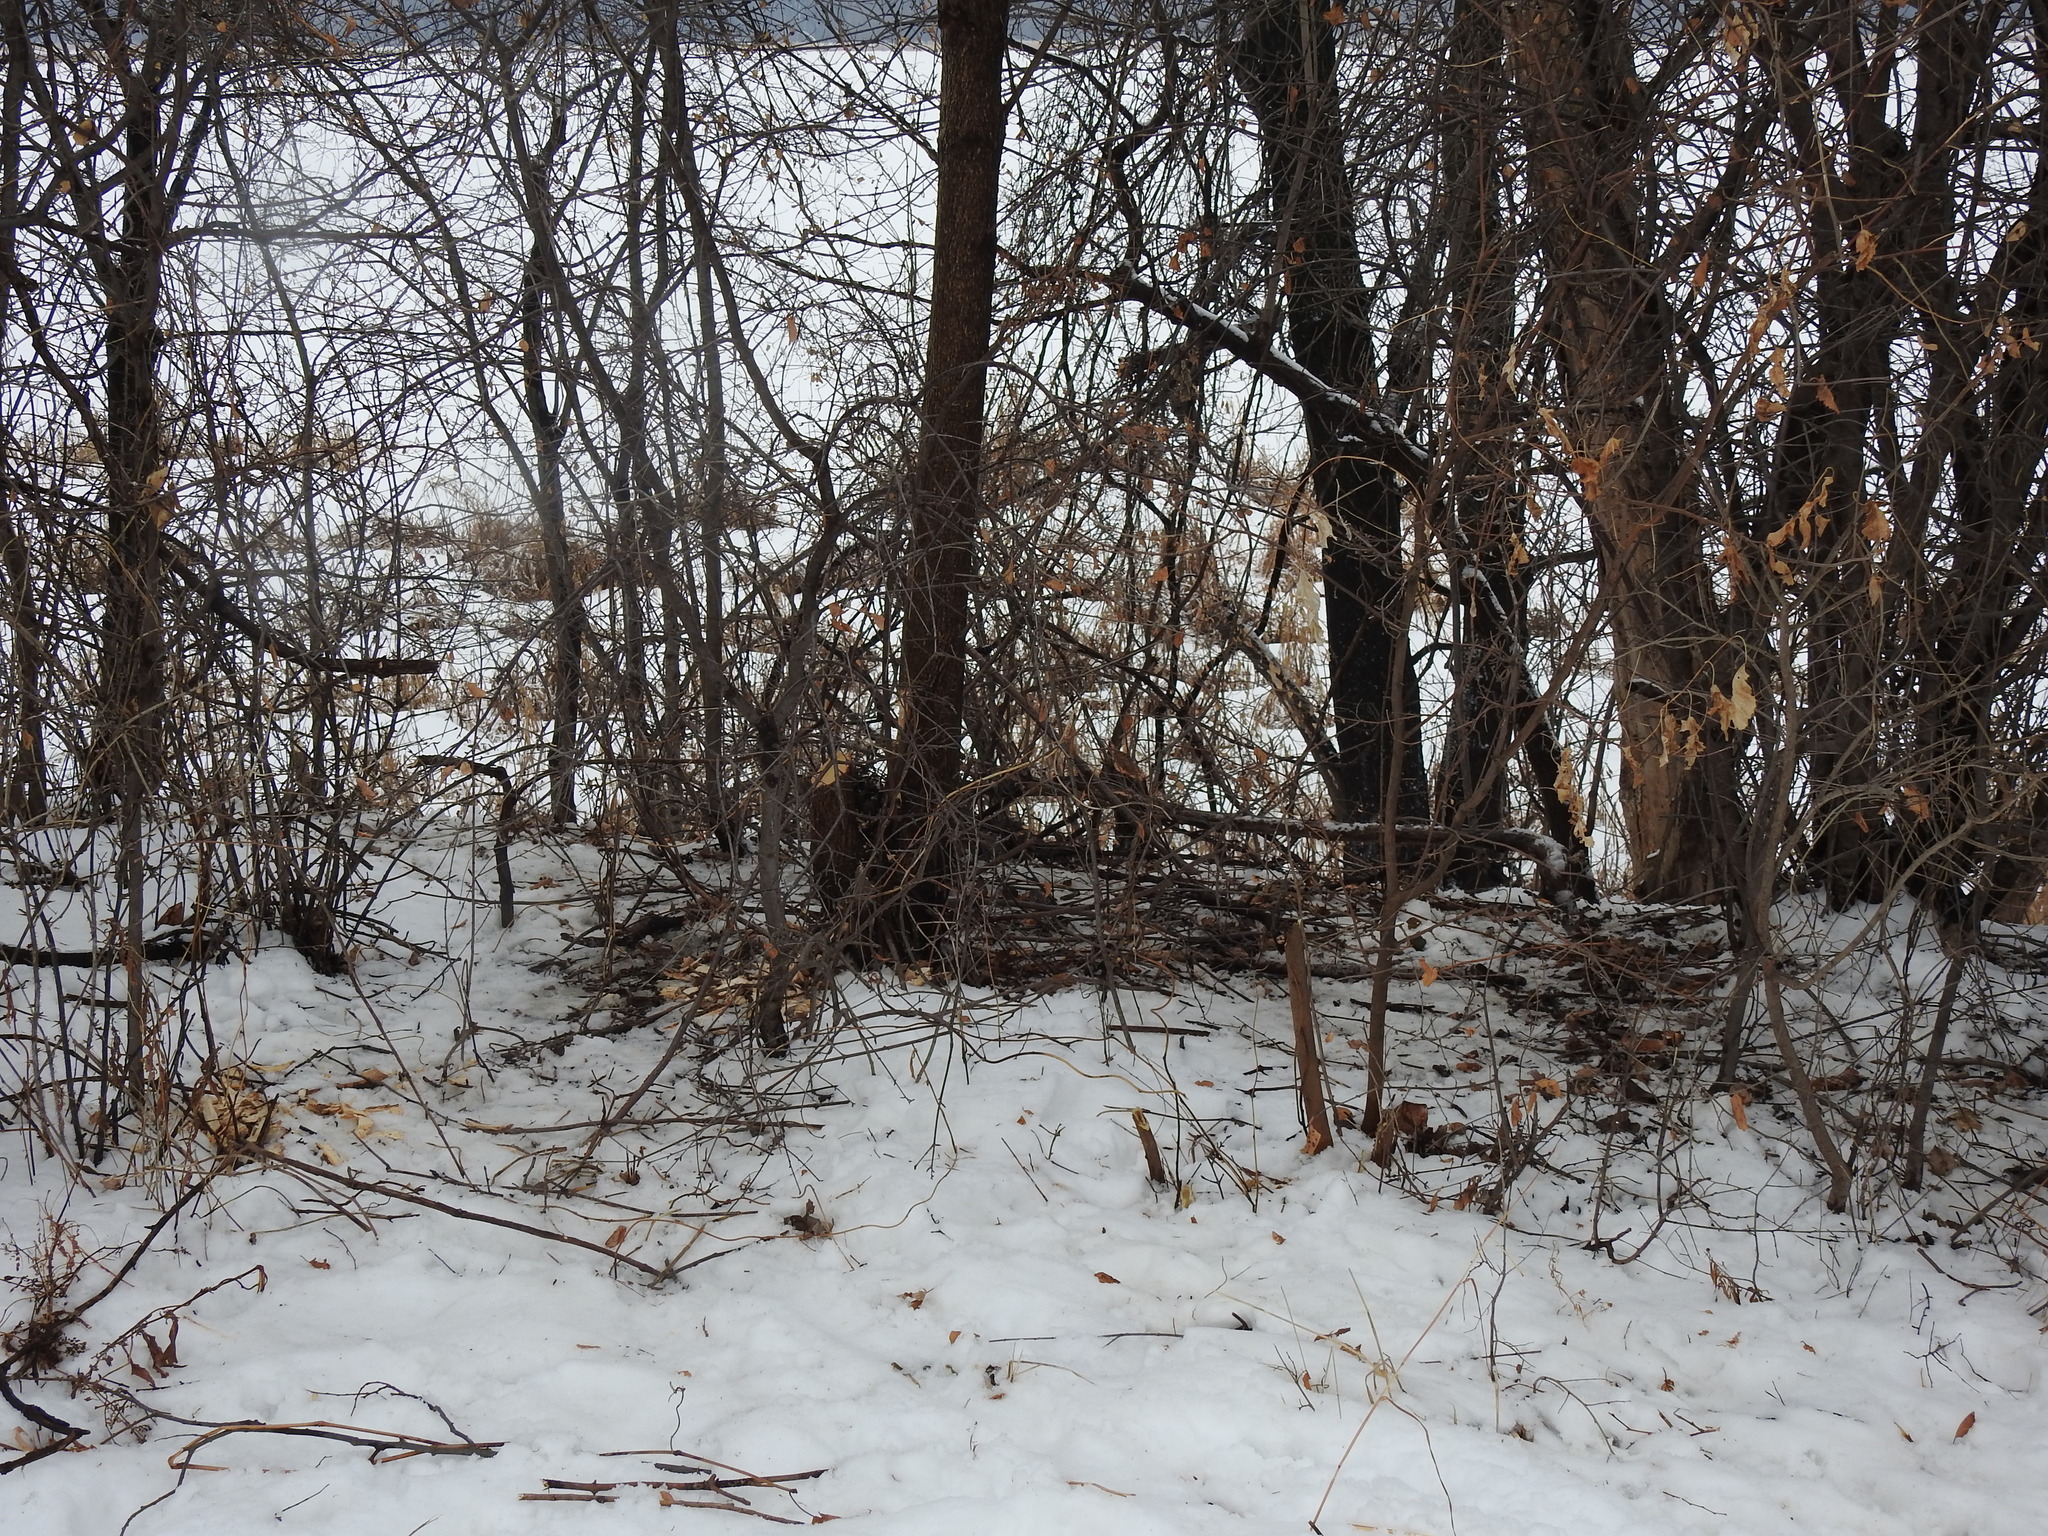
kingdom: Animalia
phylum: Chordata
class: Mammalia
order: Rodentia
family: Castoridae
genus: Castor
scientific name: Castor canadensis
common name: American beaver
